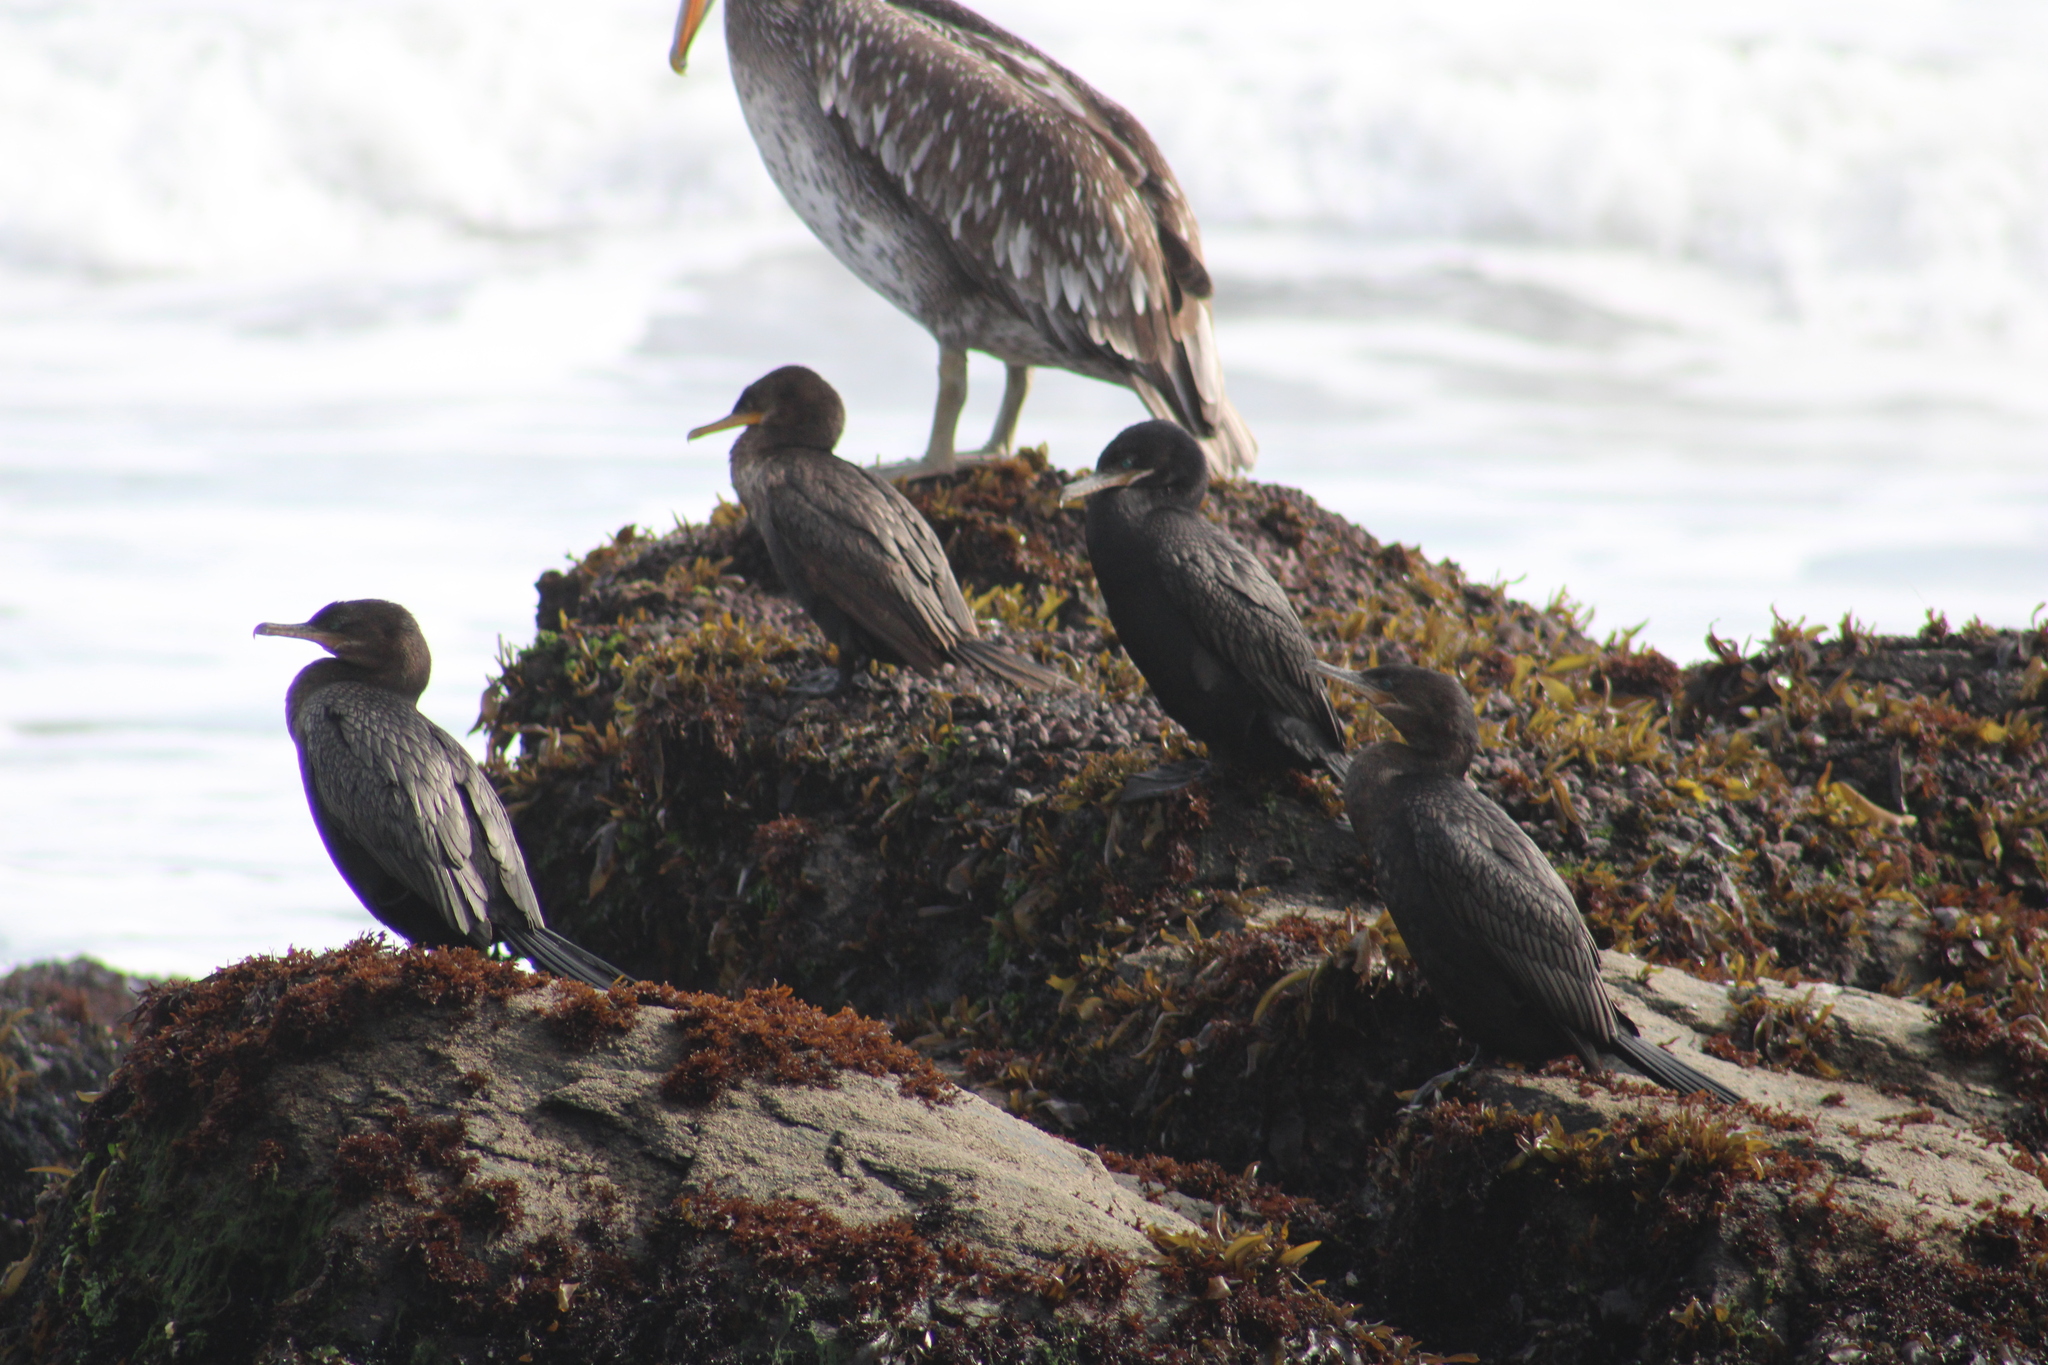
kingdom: Animalia
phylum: Chordata
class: Aves
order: Suliformes
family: Phalacrocoracidae
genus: Phalacrocorax
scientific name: Phalacrocorax brasilianus
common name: Neotropic cormorant
